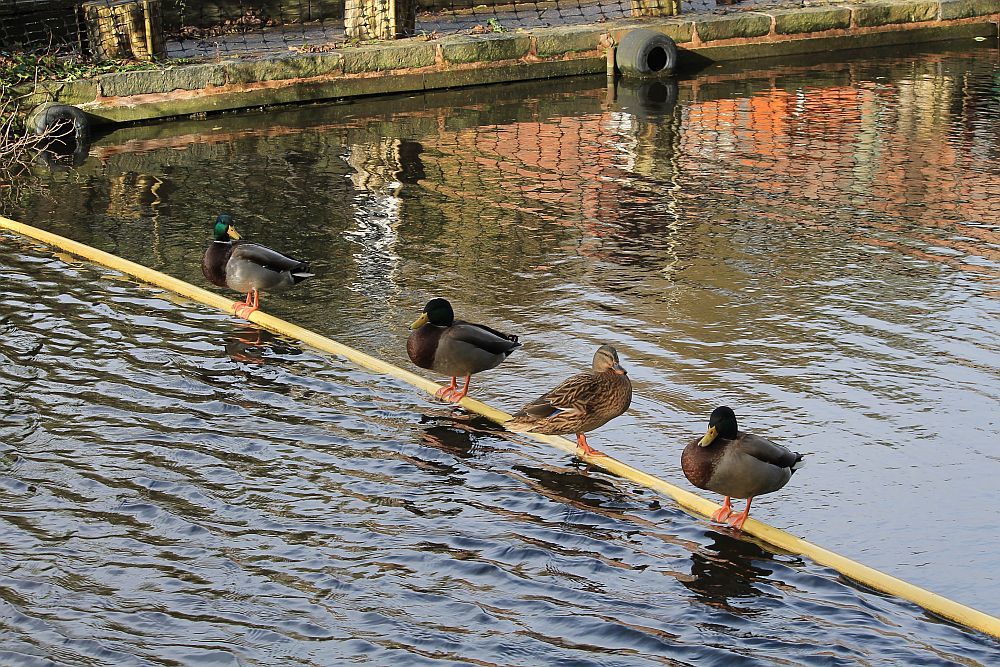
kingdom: Animalia
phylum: Chordata
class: Aves
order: Anseriformes
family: Anatidae
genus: Anas
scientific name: Anas platyrhynchos
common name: Mallard
